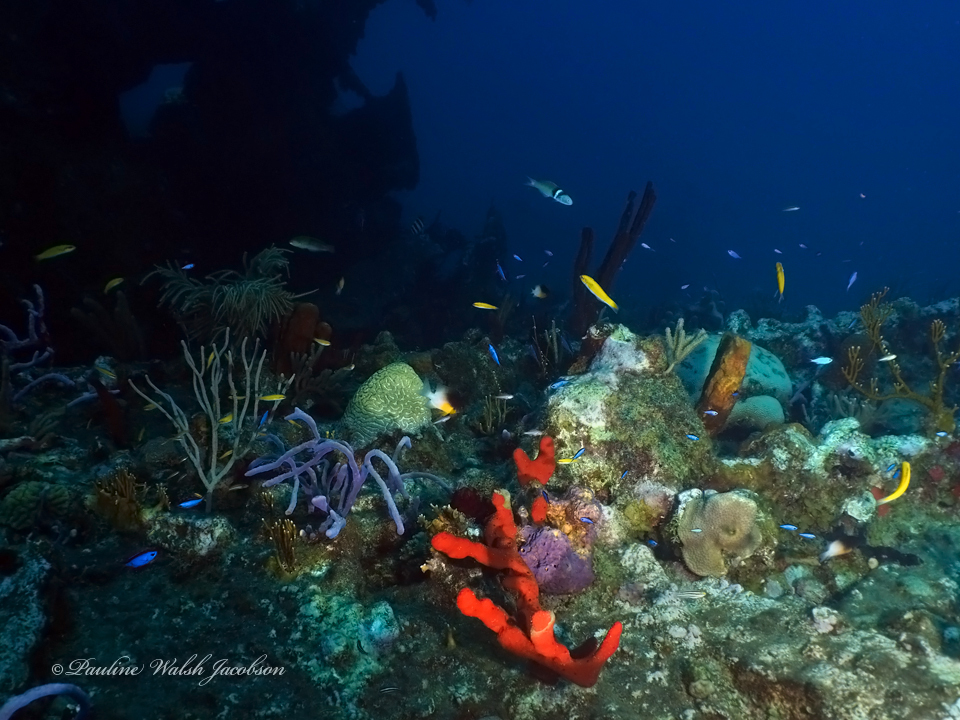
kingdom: Animalia
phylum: Chordata
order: Perciformes
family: Labridae
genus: Thalassoma
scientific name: Thalassoma bifasciatum
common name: Bluehead wrasse
